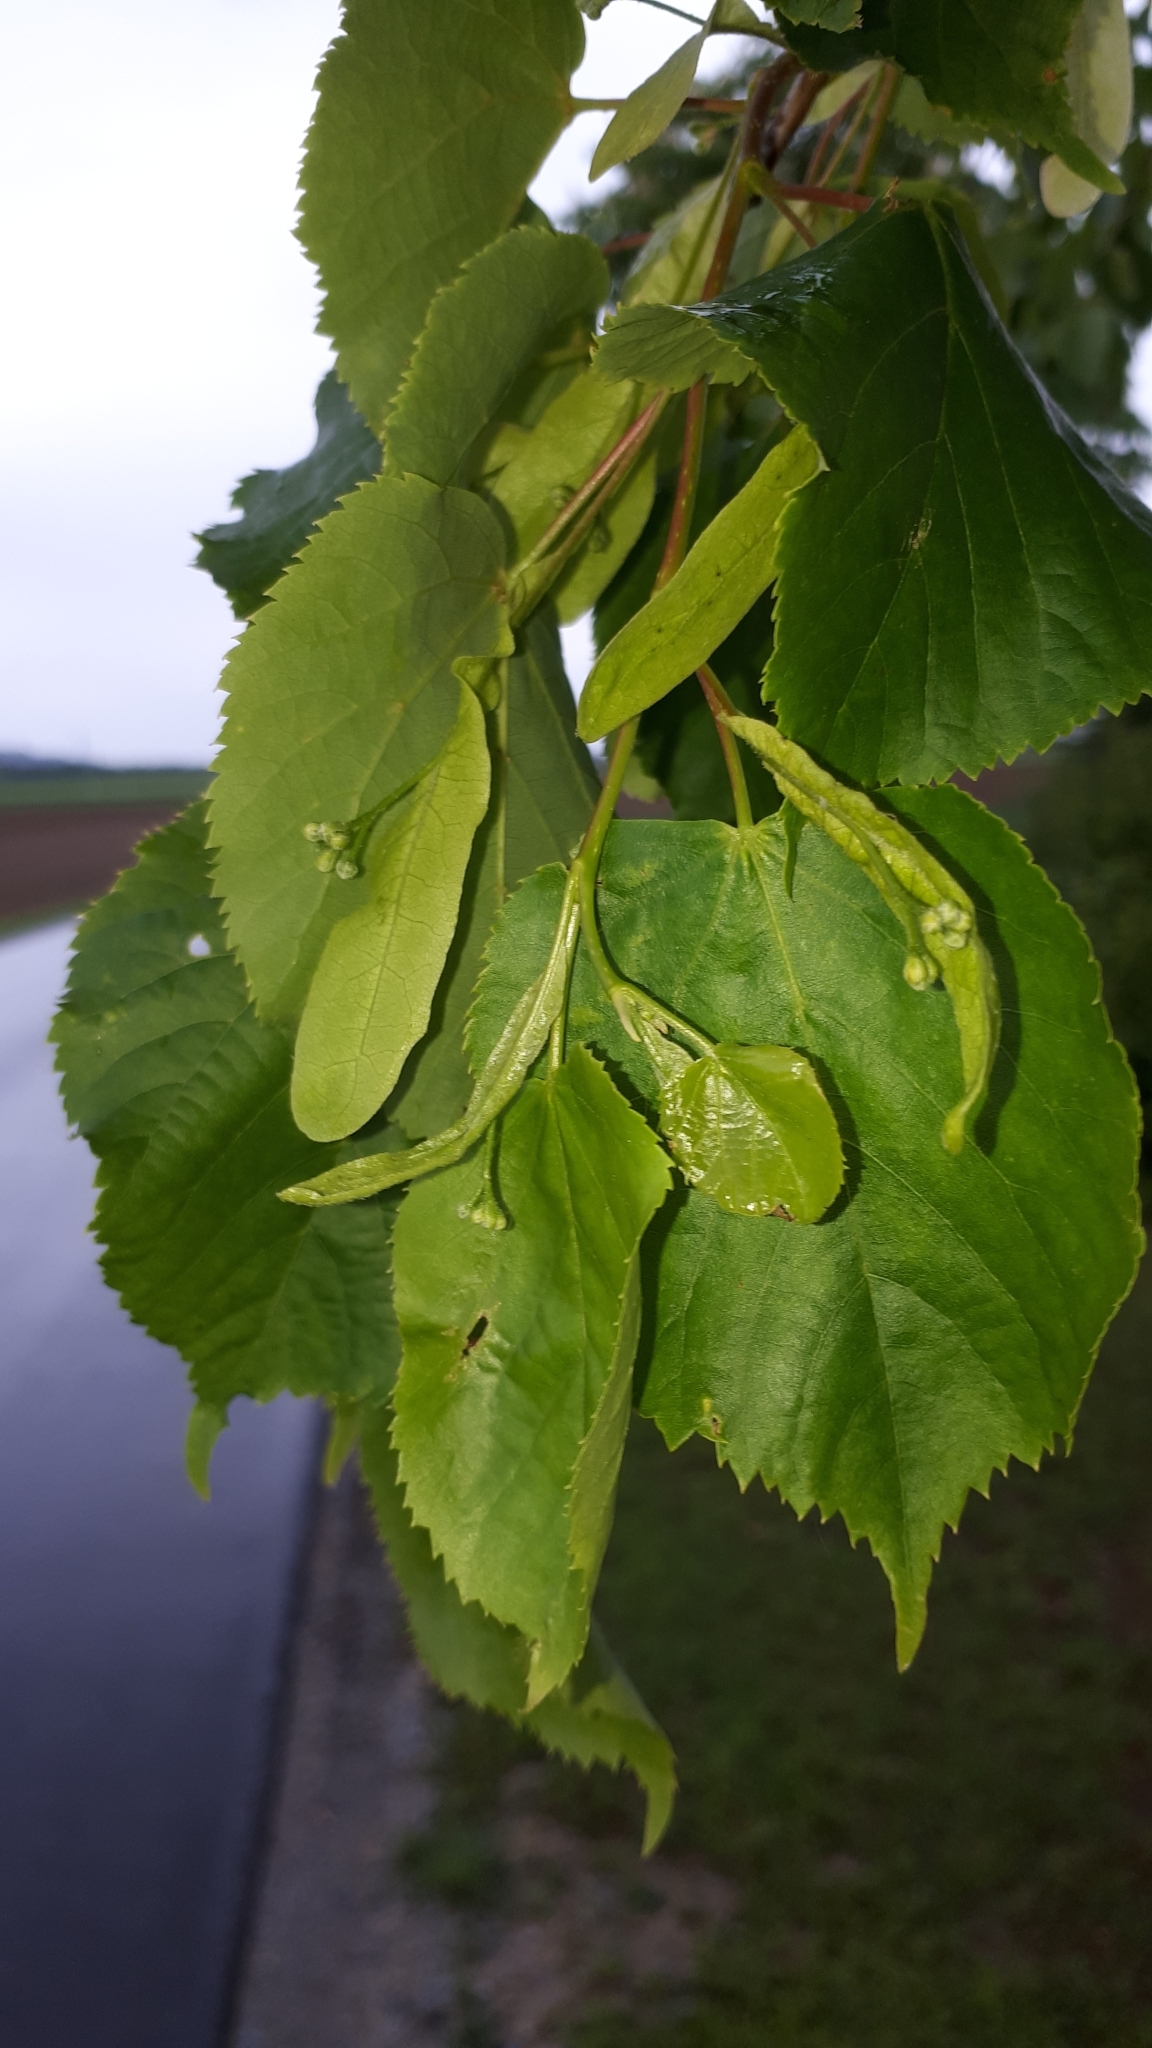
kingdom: Plantae
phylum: Tracheophyta
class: Magnoliopsida
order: Malvales
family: Malvaceae
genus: Tilia
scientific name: Tilia cordata
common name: Small-leaved lime
